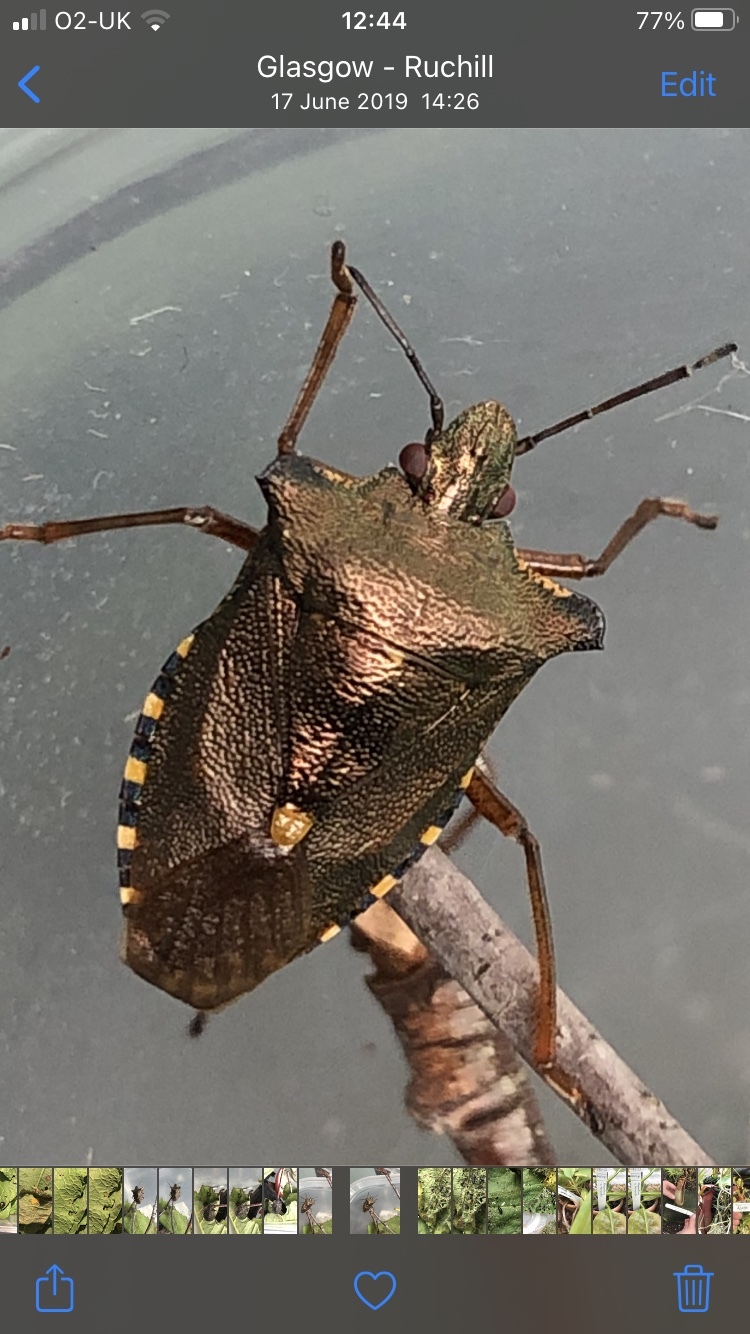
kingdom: Animalia
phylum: Arthropoda
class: Insecta
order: Hemiptera
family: Pentatomidae
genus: Pentatoma
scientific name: Pentatoma rufipes
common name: Forest bug
